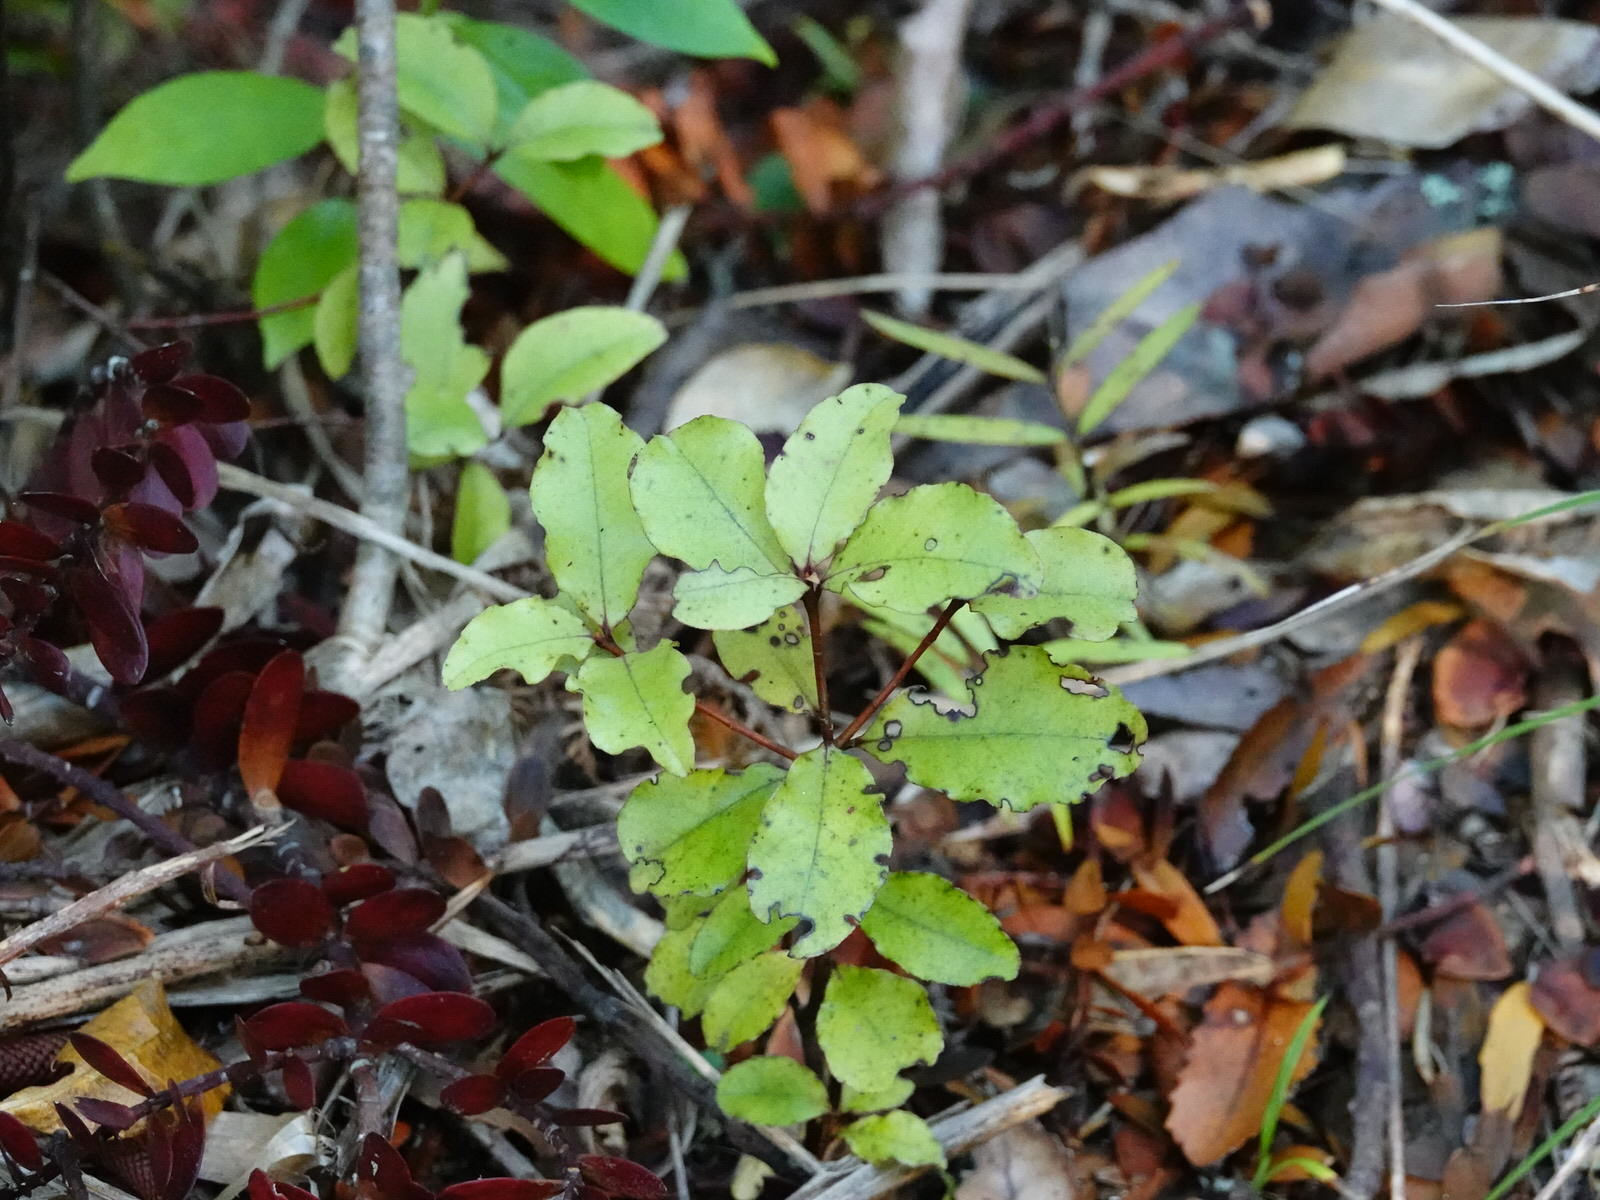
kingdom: Plantae
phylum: Tracheophyta
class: Magnoliopsida
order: Ericales
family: Primulaceae
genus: Myrsine
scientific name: Myrsine australis
